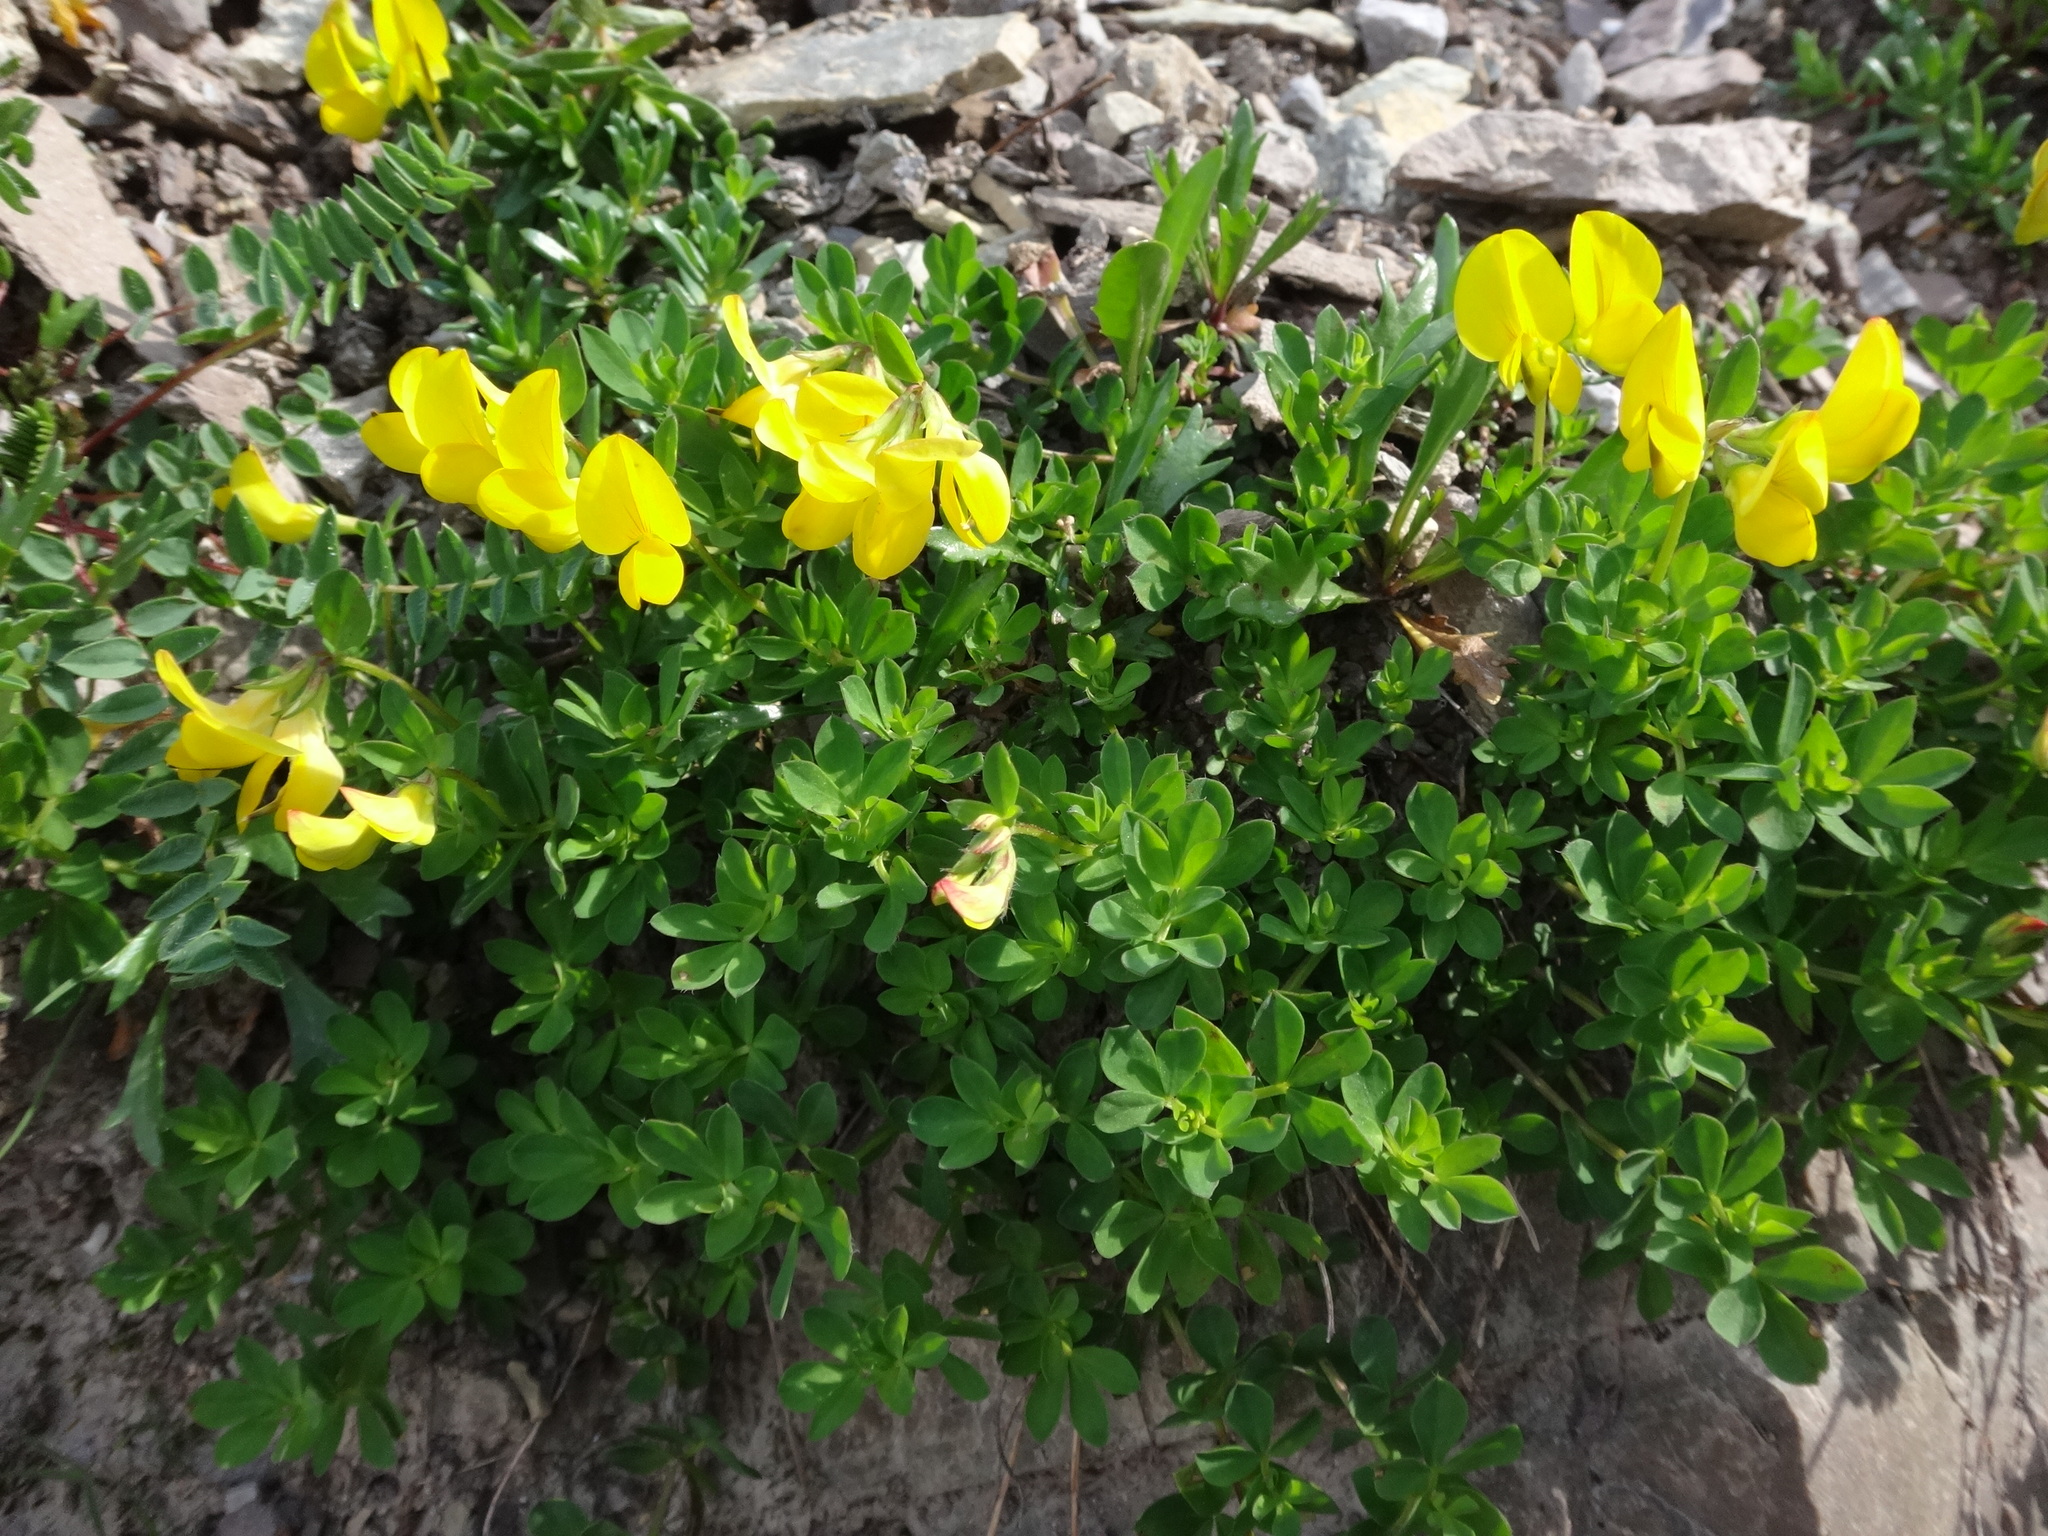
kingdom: Plantae
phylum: Tracheophyta
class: Magnoliopsida
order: Fabales
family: Fabaceae
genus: Lotus
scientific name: Lotus corniculatus
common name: Common bird's-foot-trefoil
